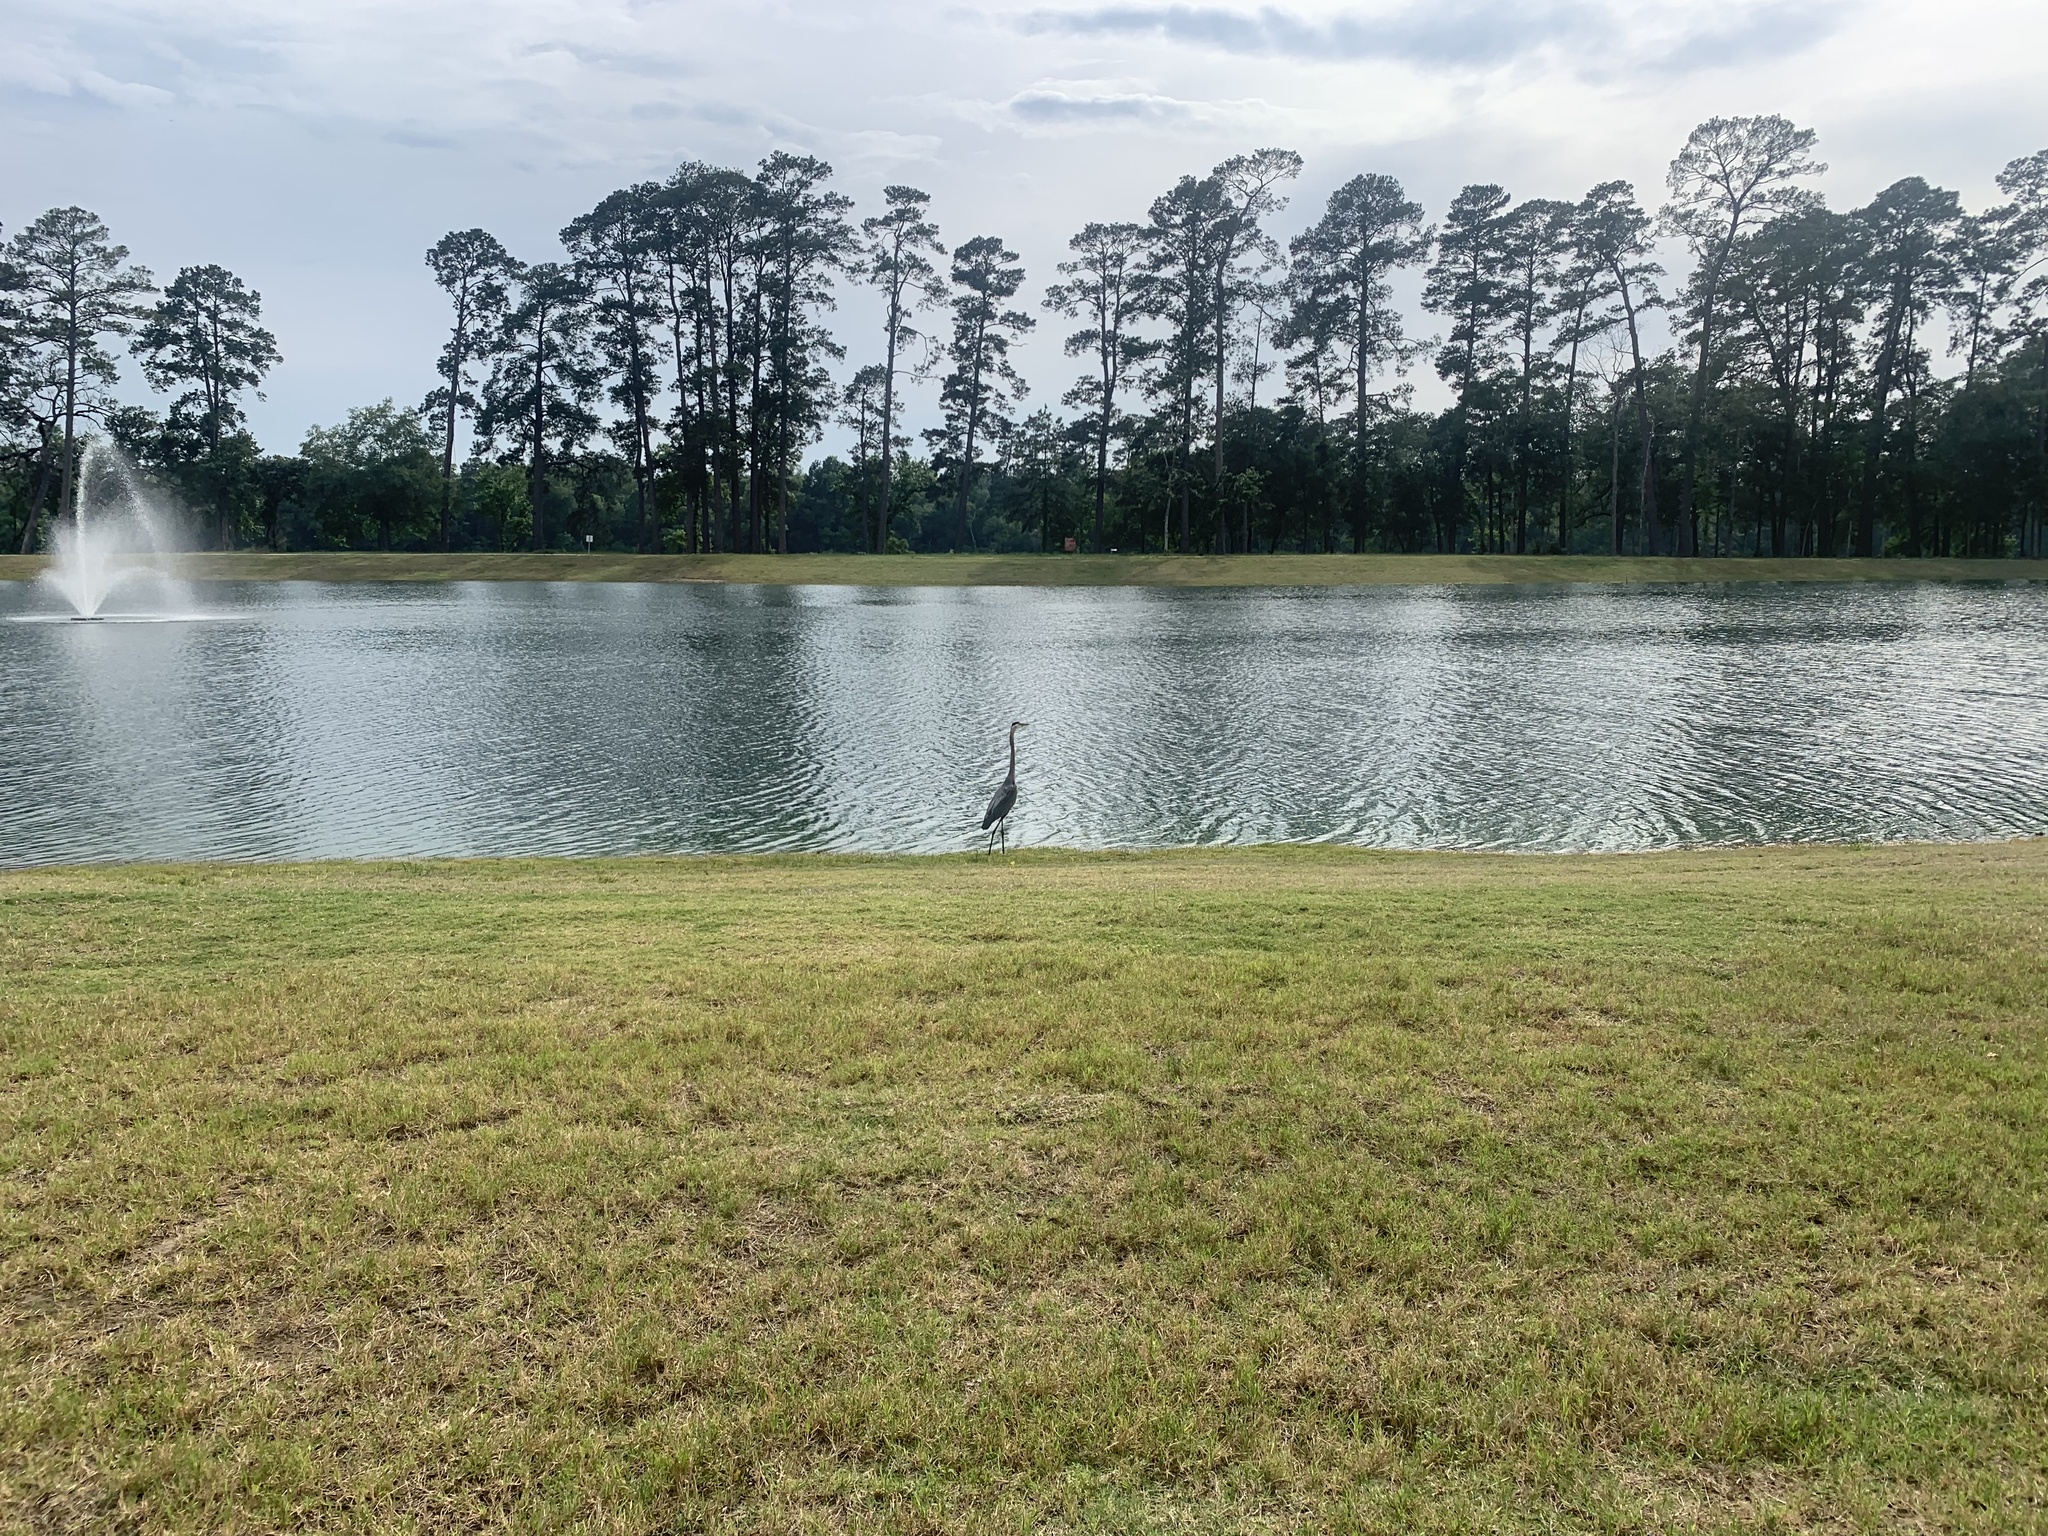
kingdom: Animalia
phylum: Chordata
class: Aves
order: Pelecaniformes
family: Ardeidae
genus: Ardea
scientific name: Ardea herodias
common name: Great blue heron
